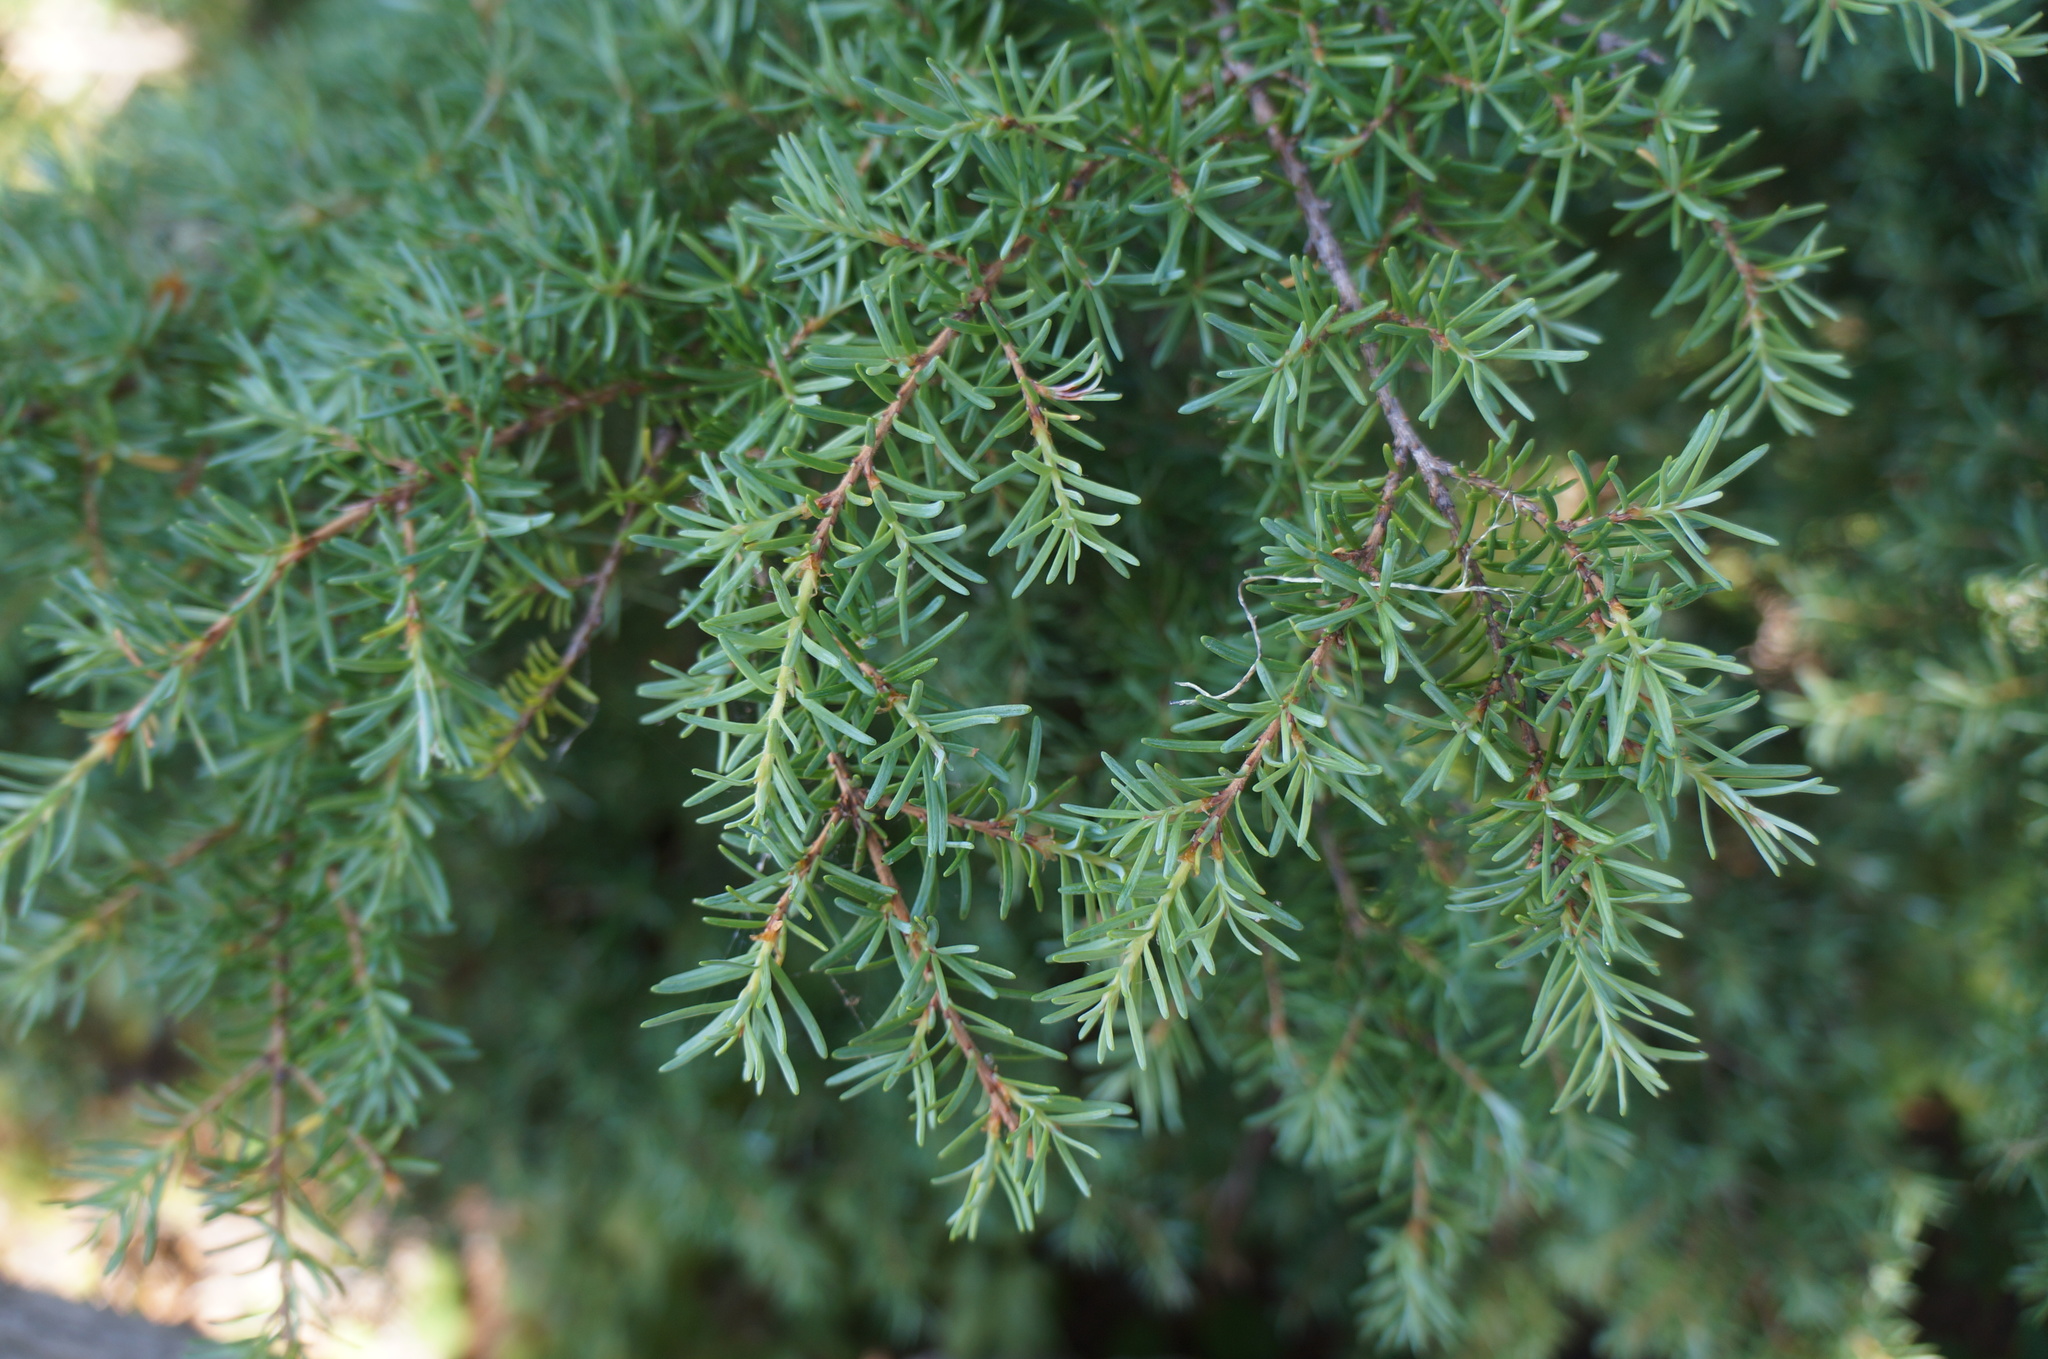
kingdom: Plantae
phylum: Tracheophyta
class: Pinopsida
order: Pinales
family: Pinaceae
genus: Tsuga
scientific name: Tsuga mertensiana
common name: Mountain hemlock
